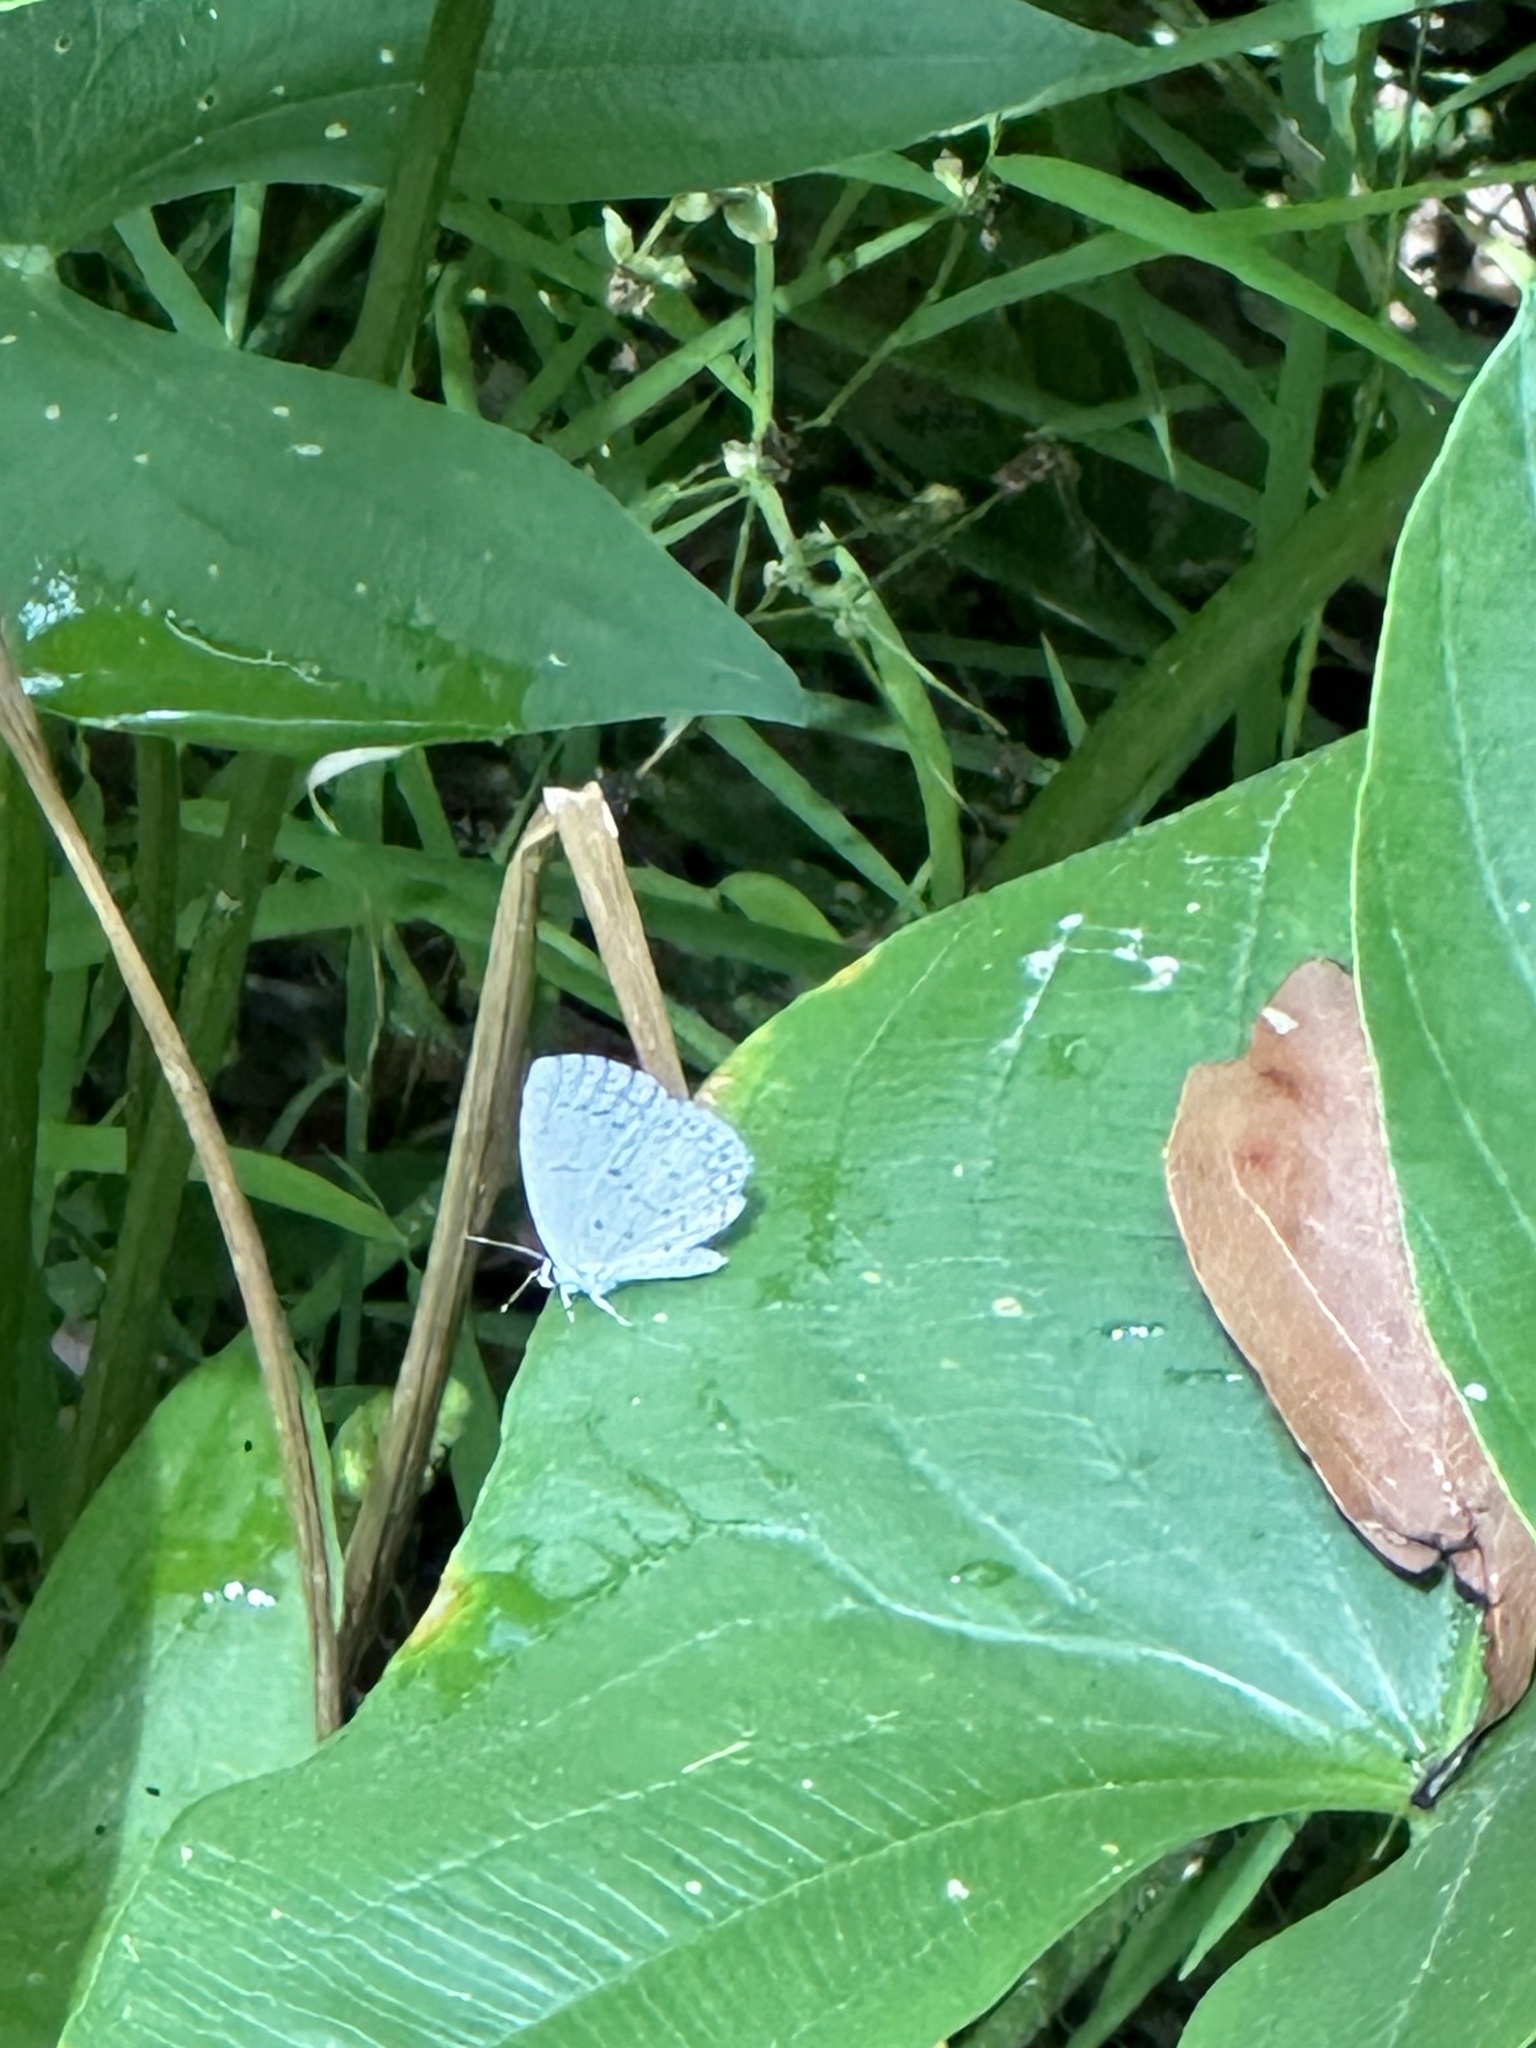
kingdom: Animalia
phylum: Arthropoda
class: Insecta
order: Lepidoptera
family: Lycaenidae
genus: Cyaniris
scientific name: Cyaniris neglecta
